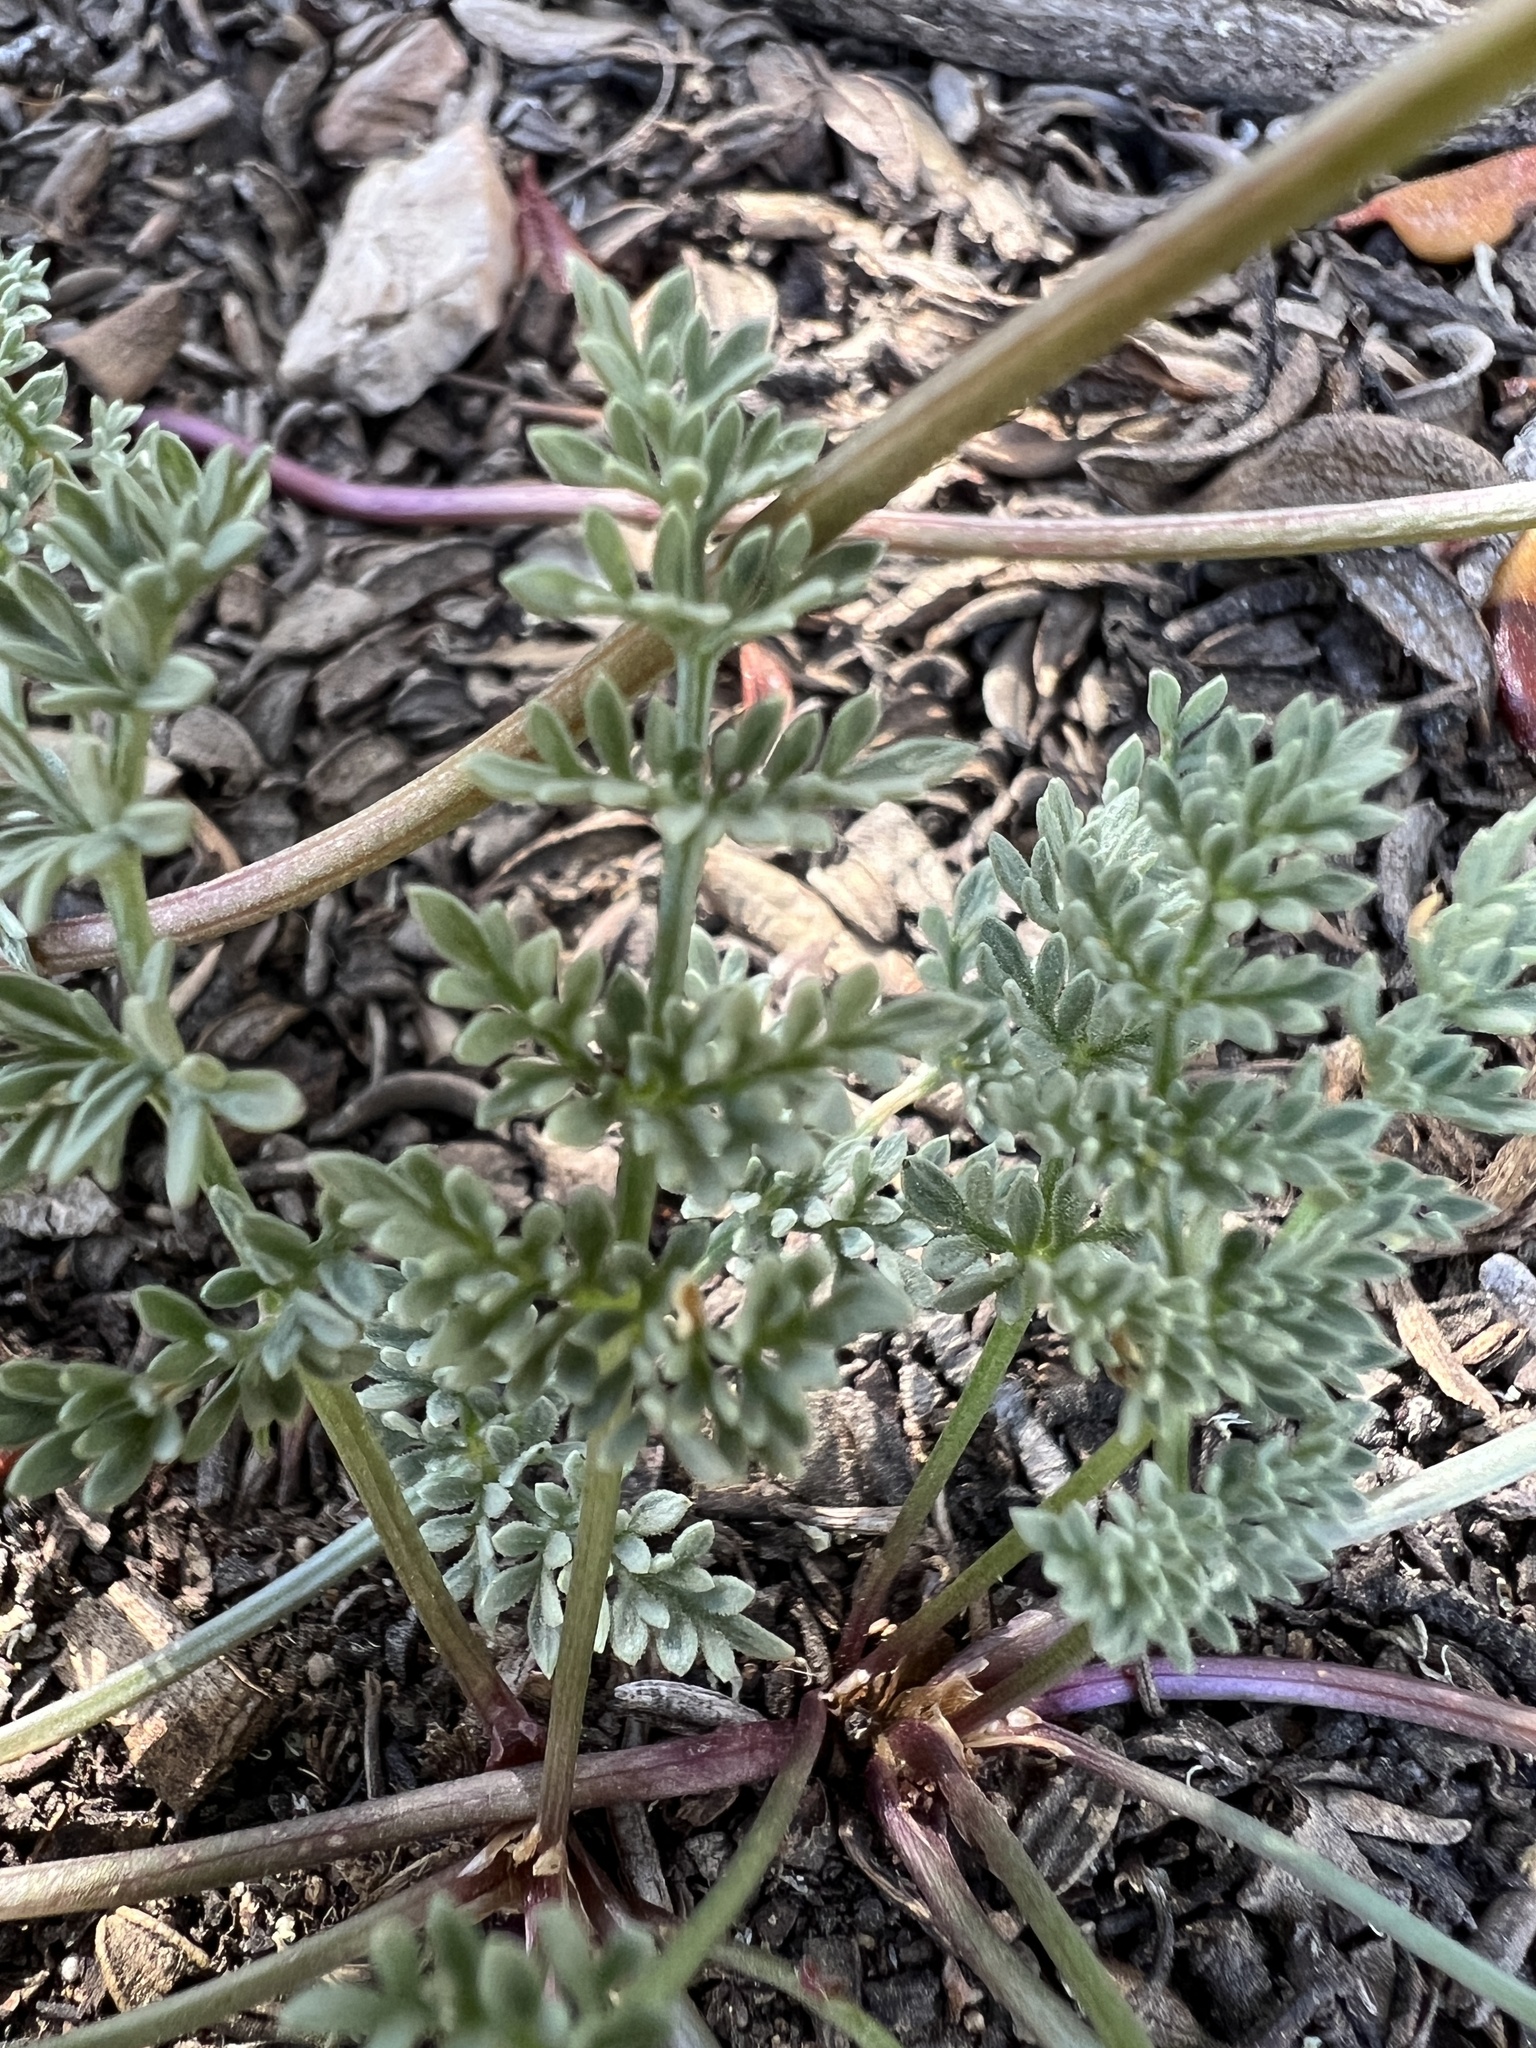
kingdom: Plantae
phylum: Tracheophyta
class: Magnoliopsida
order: Apiales
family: Apiaceae
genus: Aulospermum
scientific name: Aulospermum aboriginum
